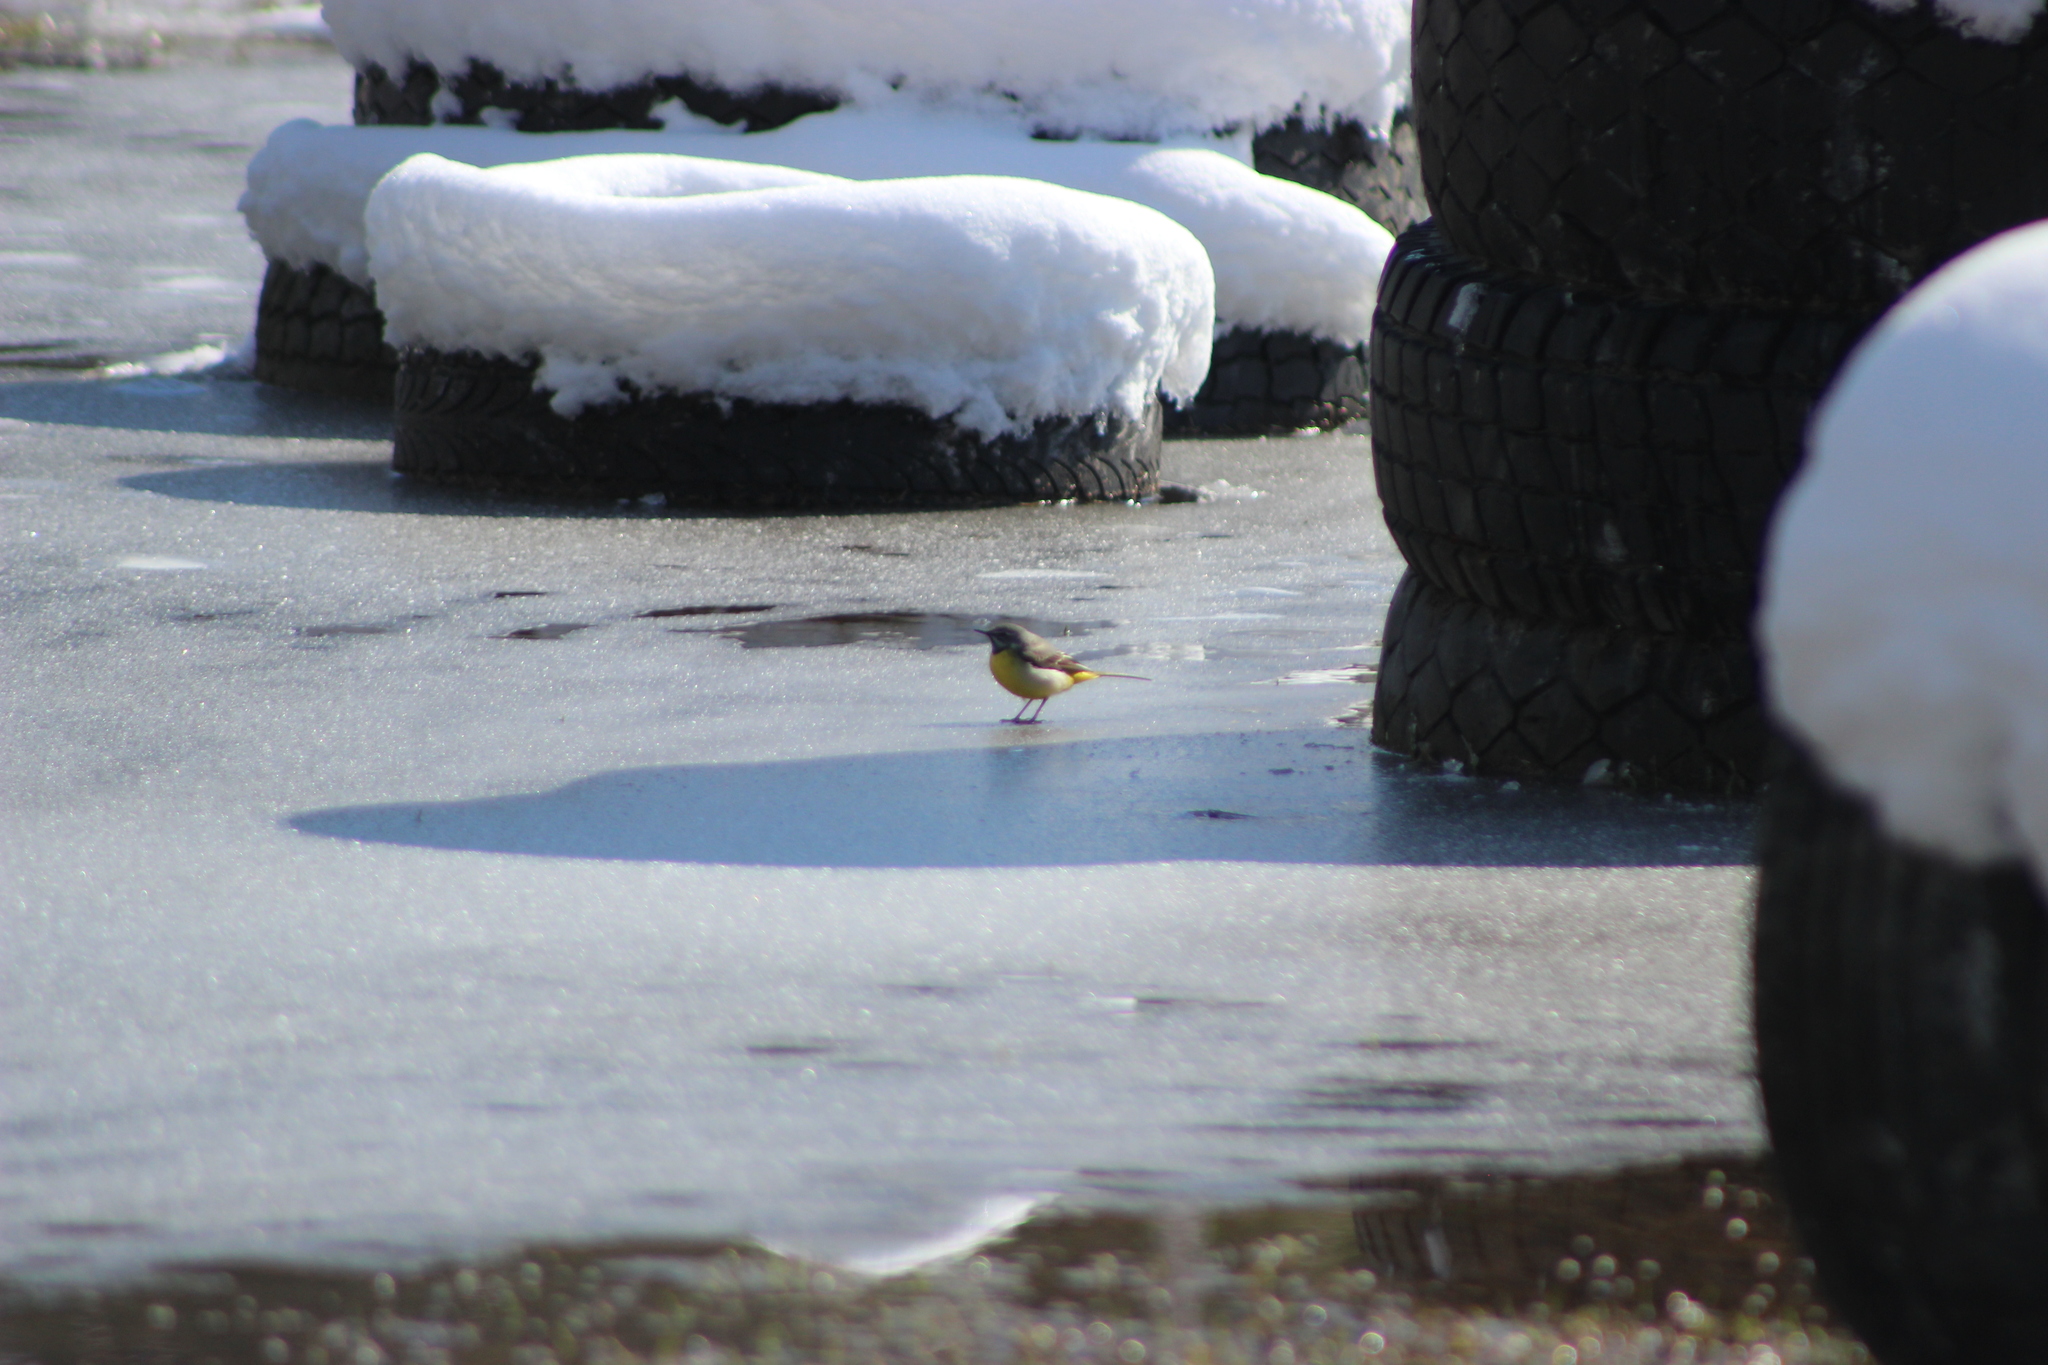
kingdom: Animalia
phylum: Chordata
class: Aves
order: Passeriformes
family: Turdidae
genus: Turdus
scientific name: Turdus pilaris
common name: Fieldfare
